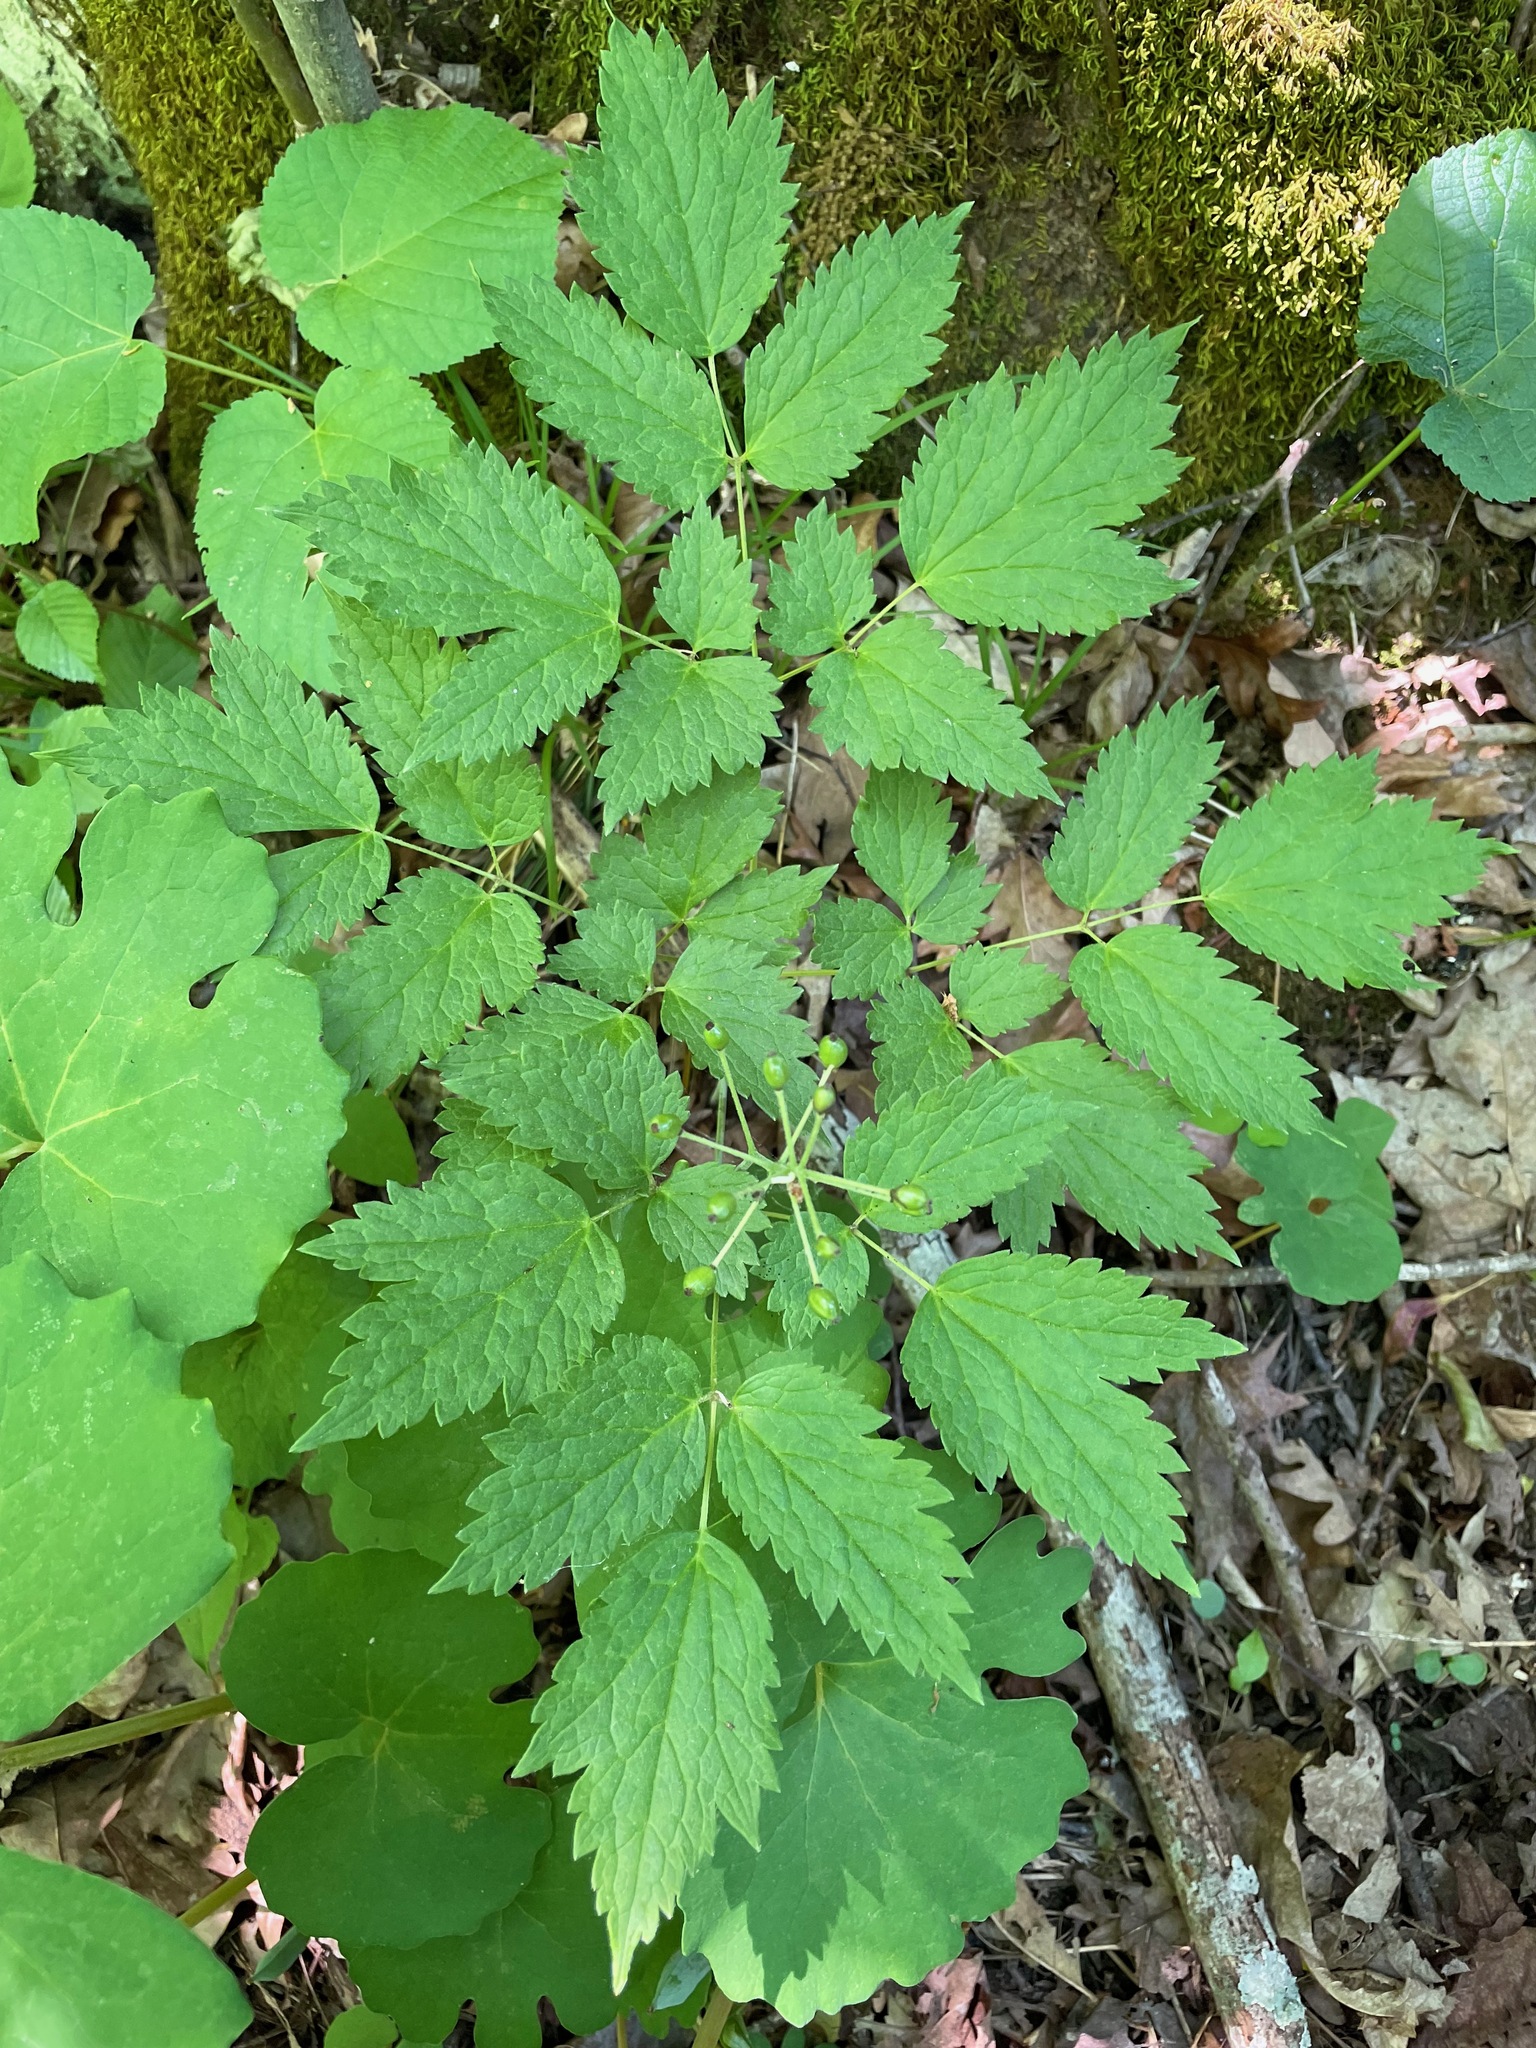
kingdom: Plantae
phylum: Tracheophyta
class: Magnoliopsida
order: Ranunculales
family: Ranunculaceae
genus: Actaea
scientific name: Actaea rubra
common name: Red baneberry
